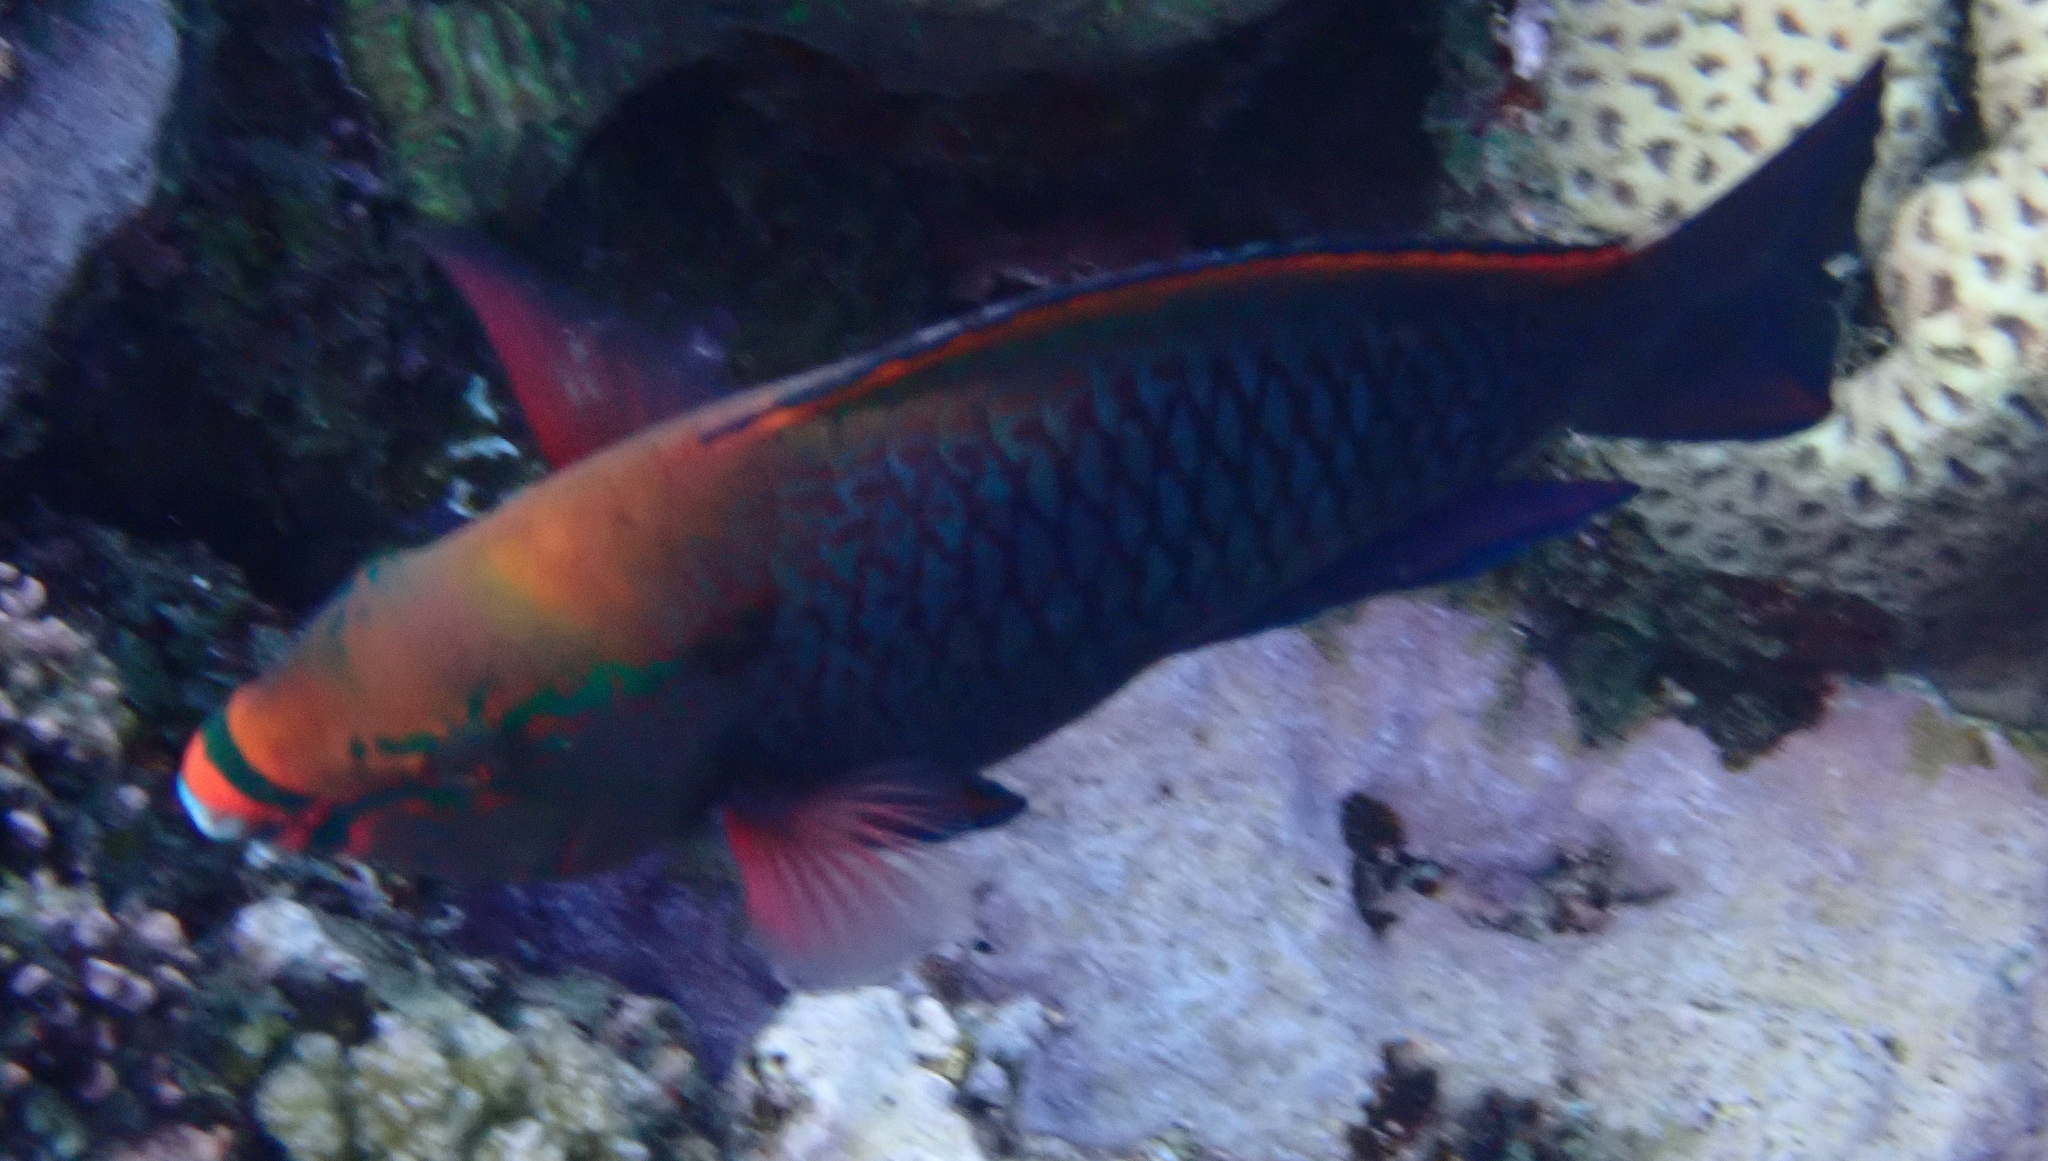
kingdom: Animalia
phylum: Chordata
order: Perciformes
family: Scaridae
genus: Scarus
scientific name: Scarus niger
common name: Dusky parrotfish
